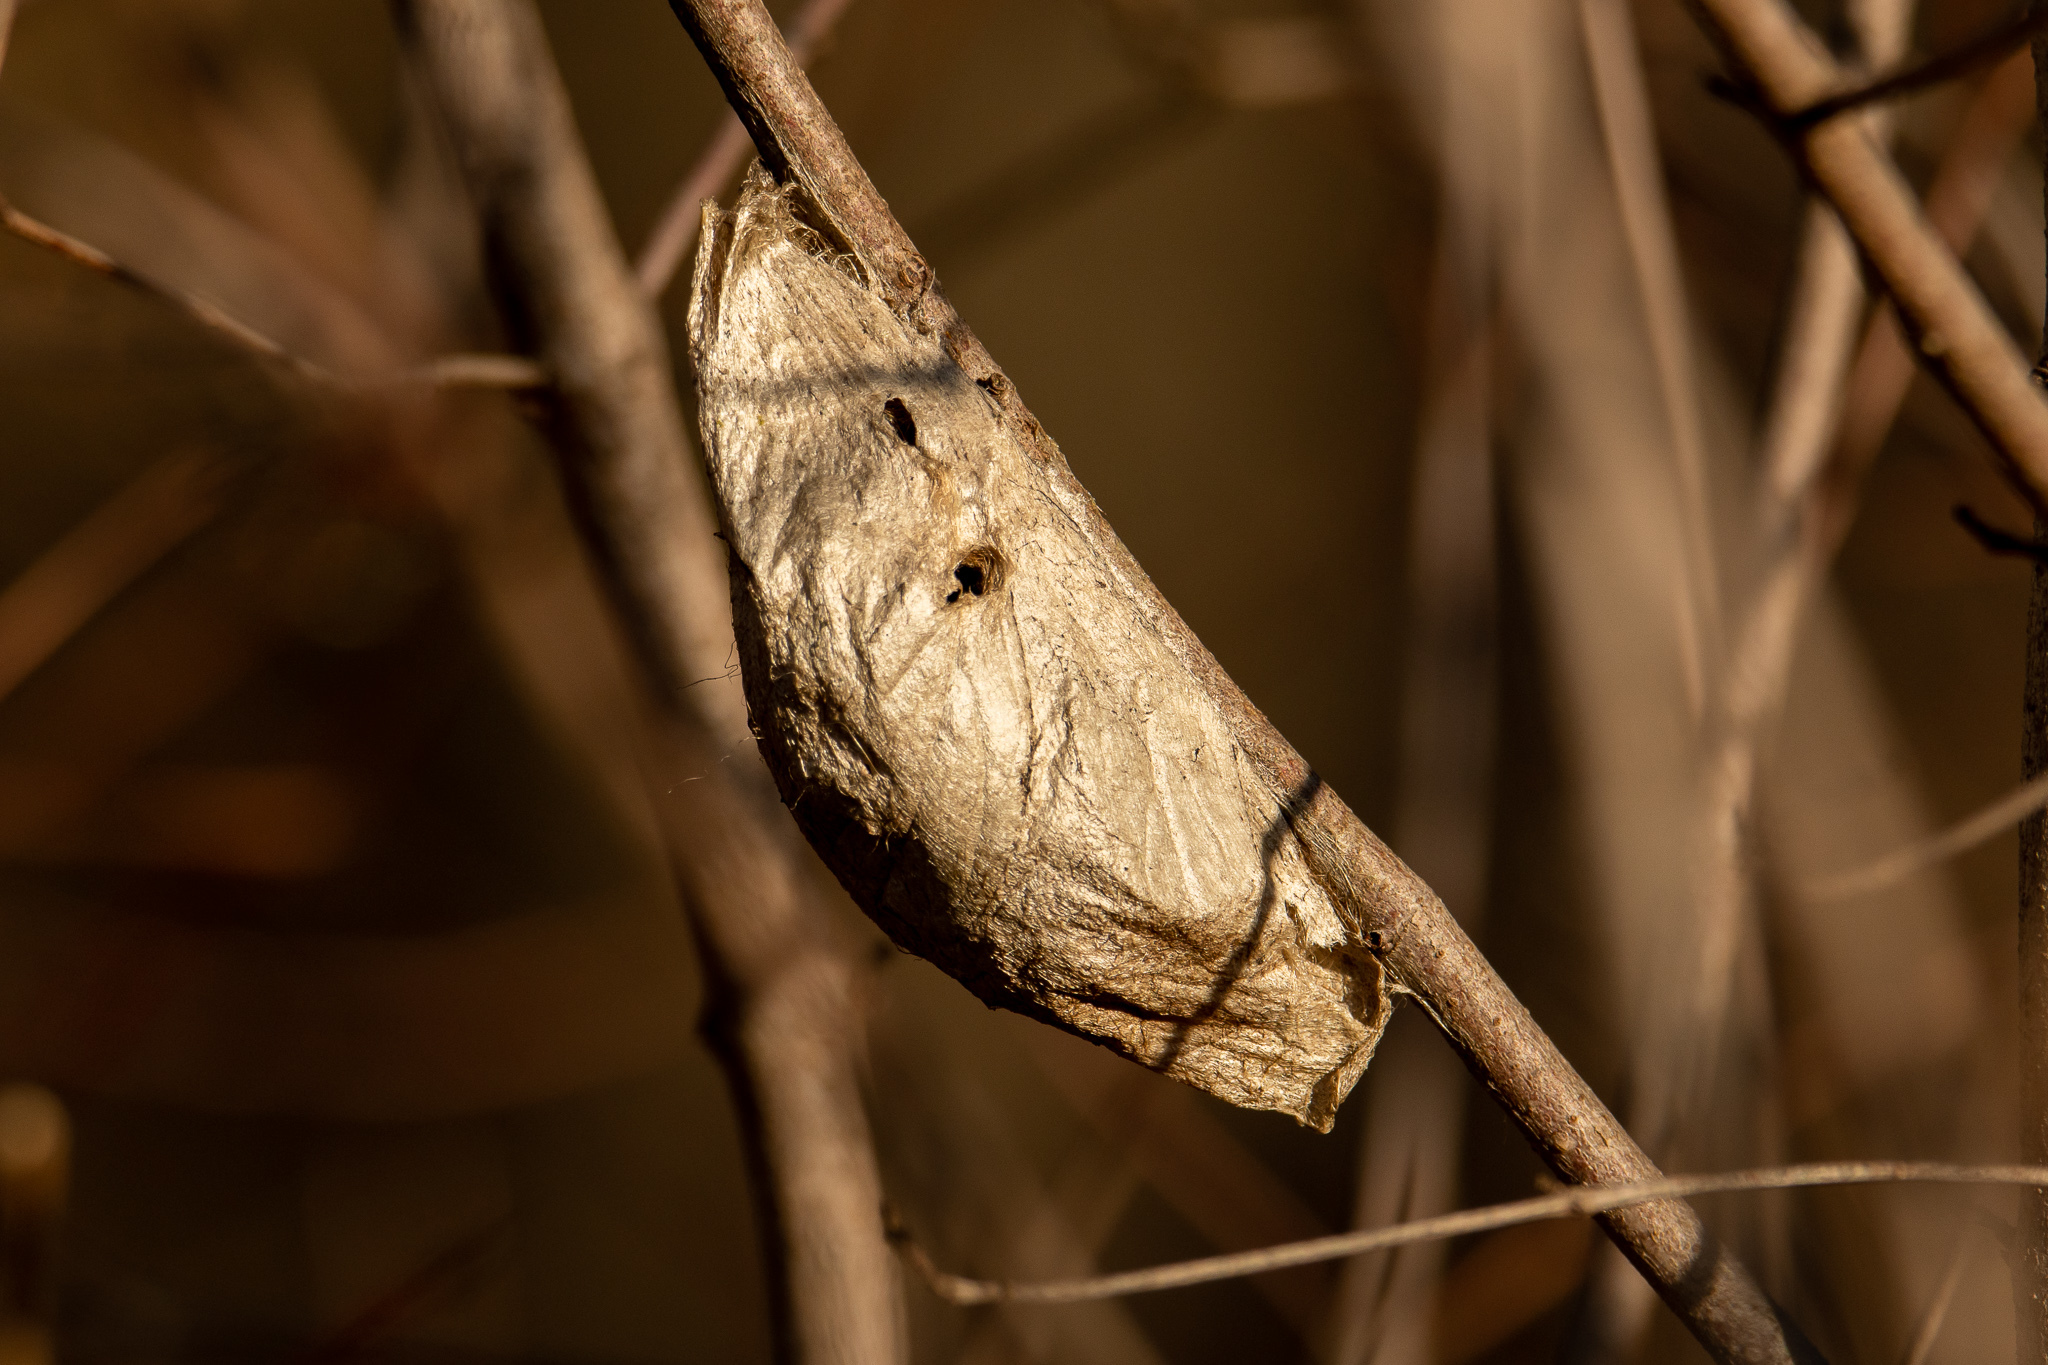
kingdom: Animalia
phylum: Arthropoda
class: Insecta
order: Lepidoptera
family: Saturniidae
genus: Hyalophora
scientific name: Hyalophora cecropia
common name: Cecropia silkmoth
